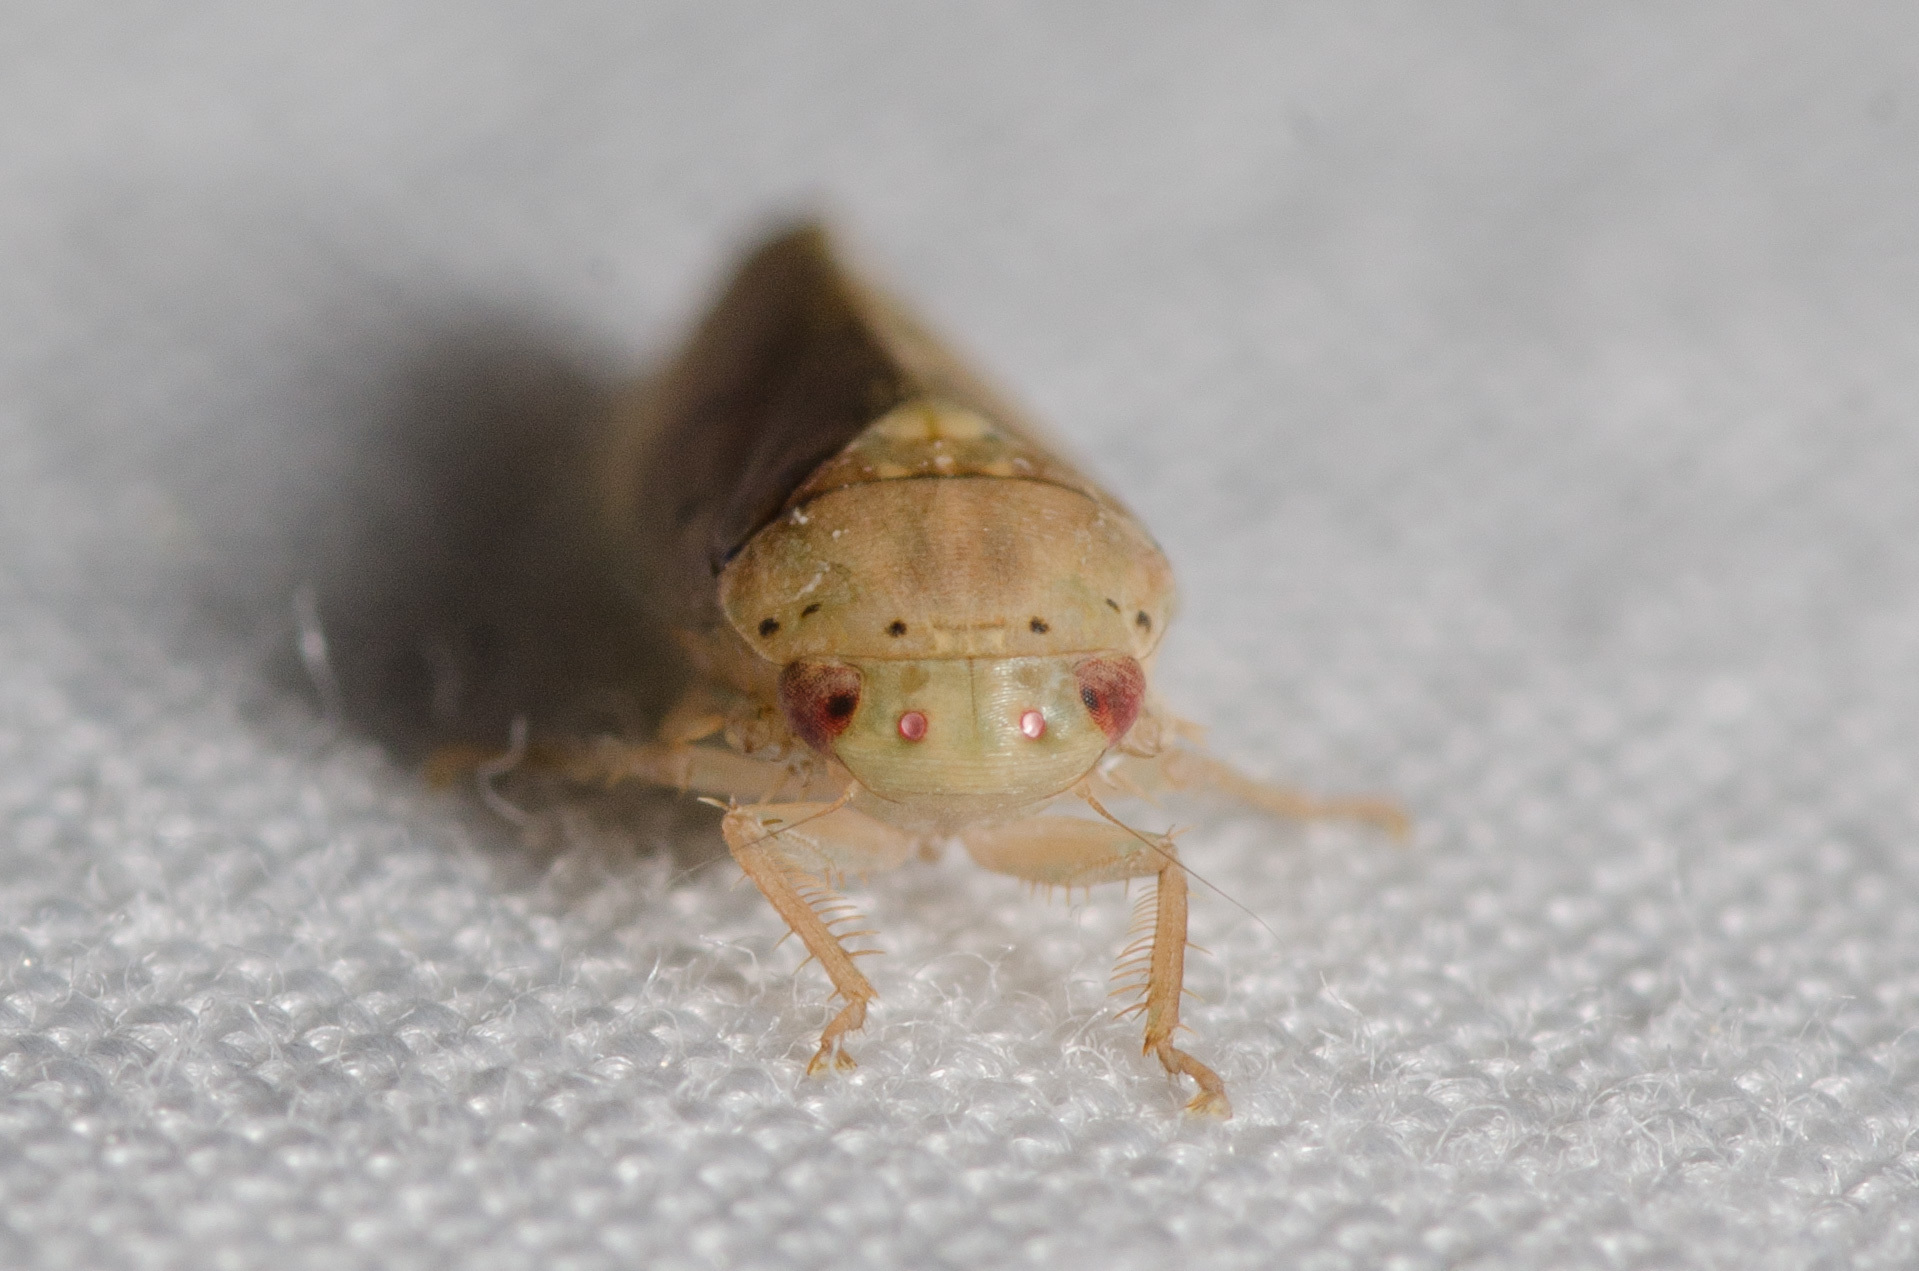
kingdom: Animalia
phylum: Arthropoda
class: Insecta
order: Hemiptera
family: Cicadellidae
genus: Ponana
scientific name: Ponana quadralaba
